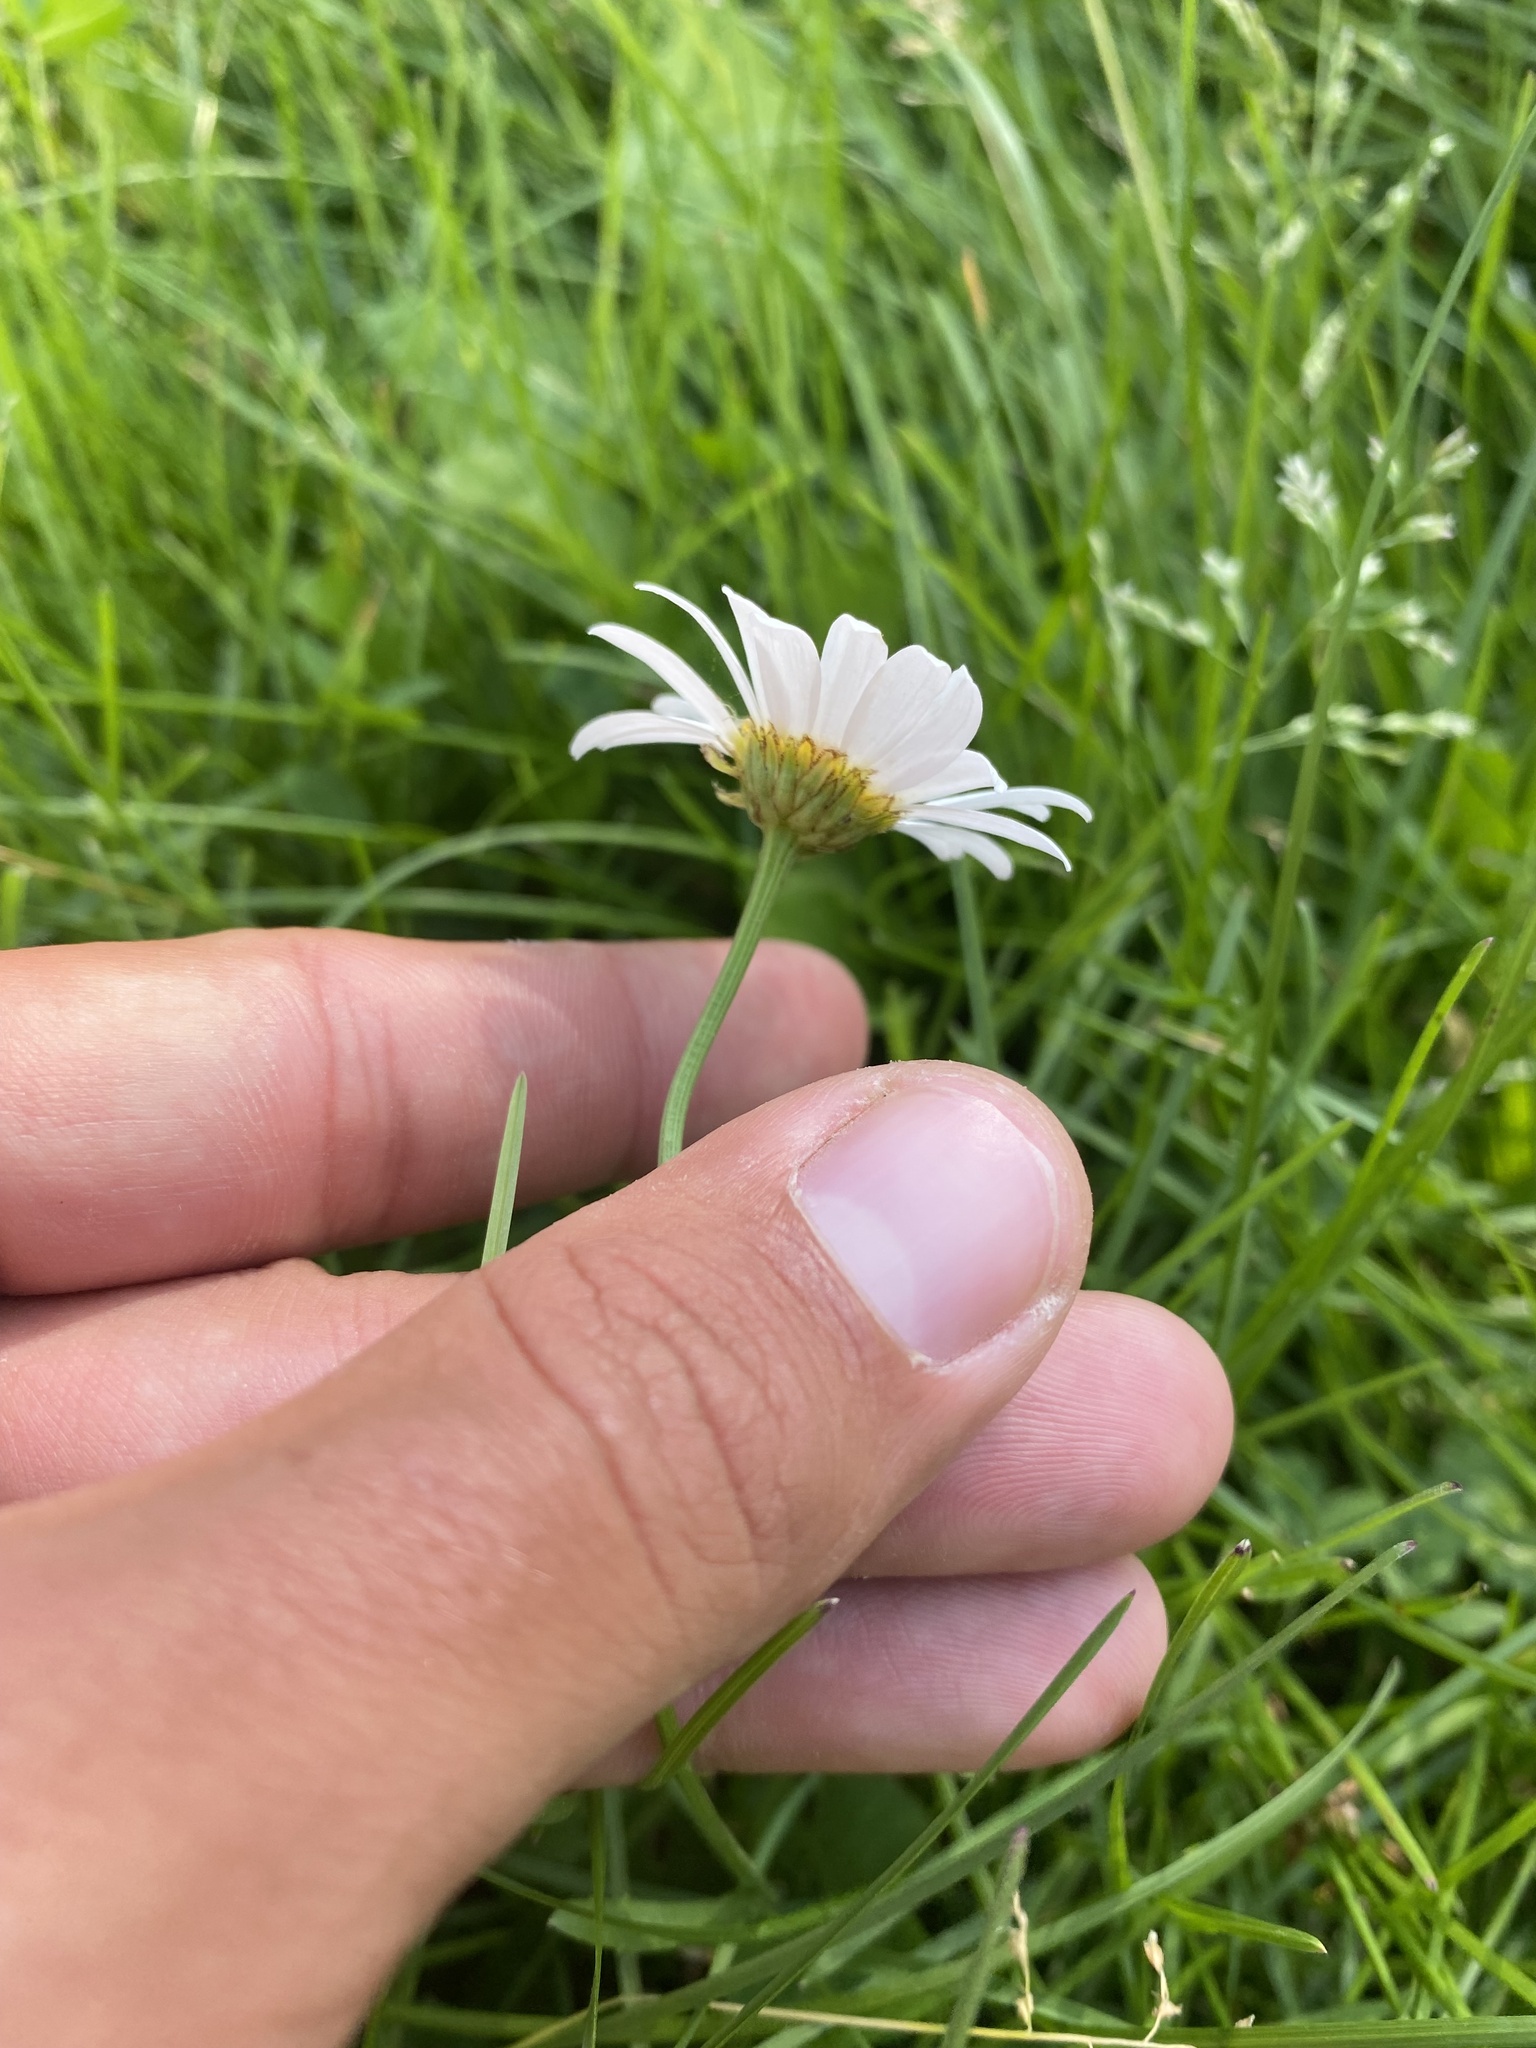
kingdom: Plantae
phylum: Tracheophyta
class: Magnoliopsida
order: Asterales
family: Asteraceae
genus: Leucanthemum
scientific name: Leucanthemum vulgare
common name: Oxeye daisy
